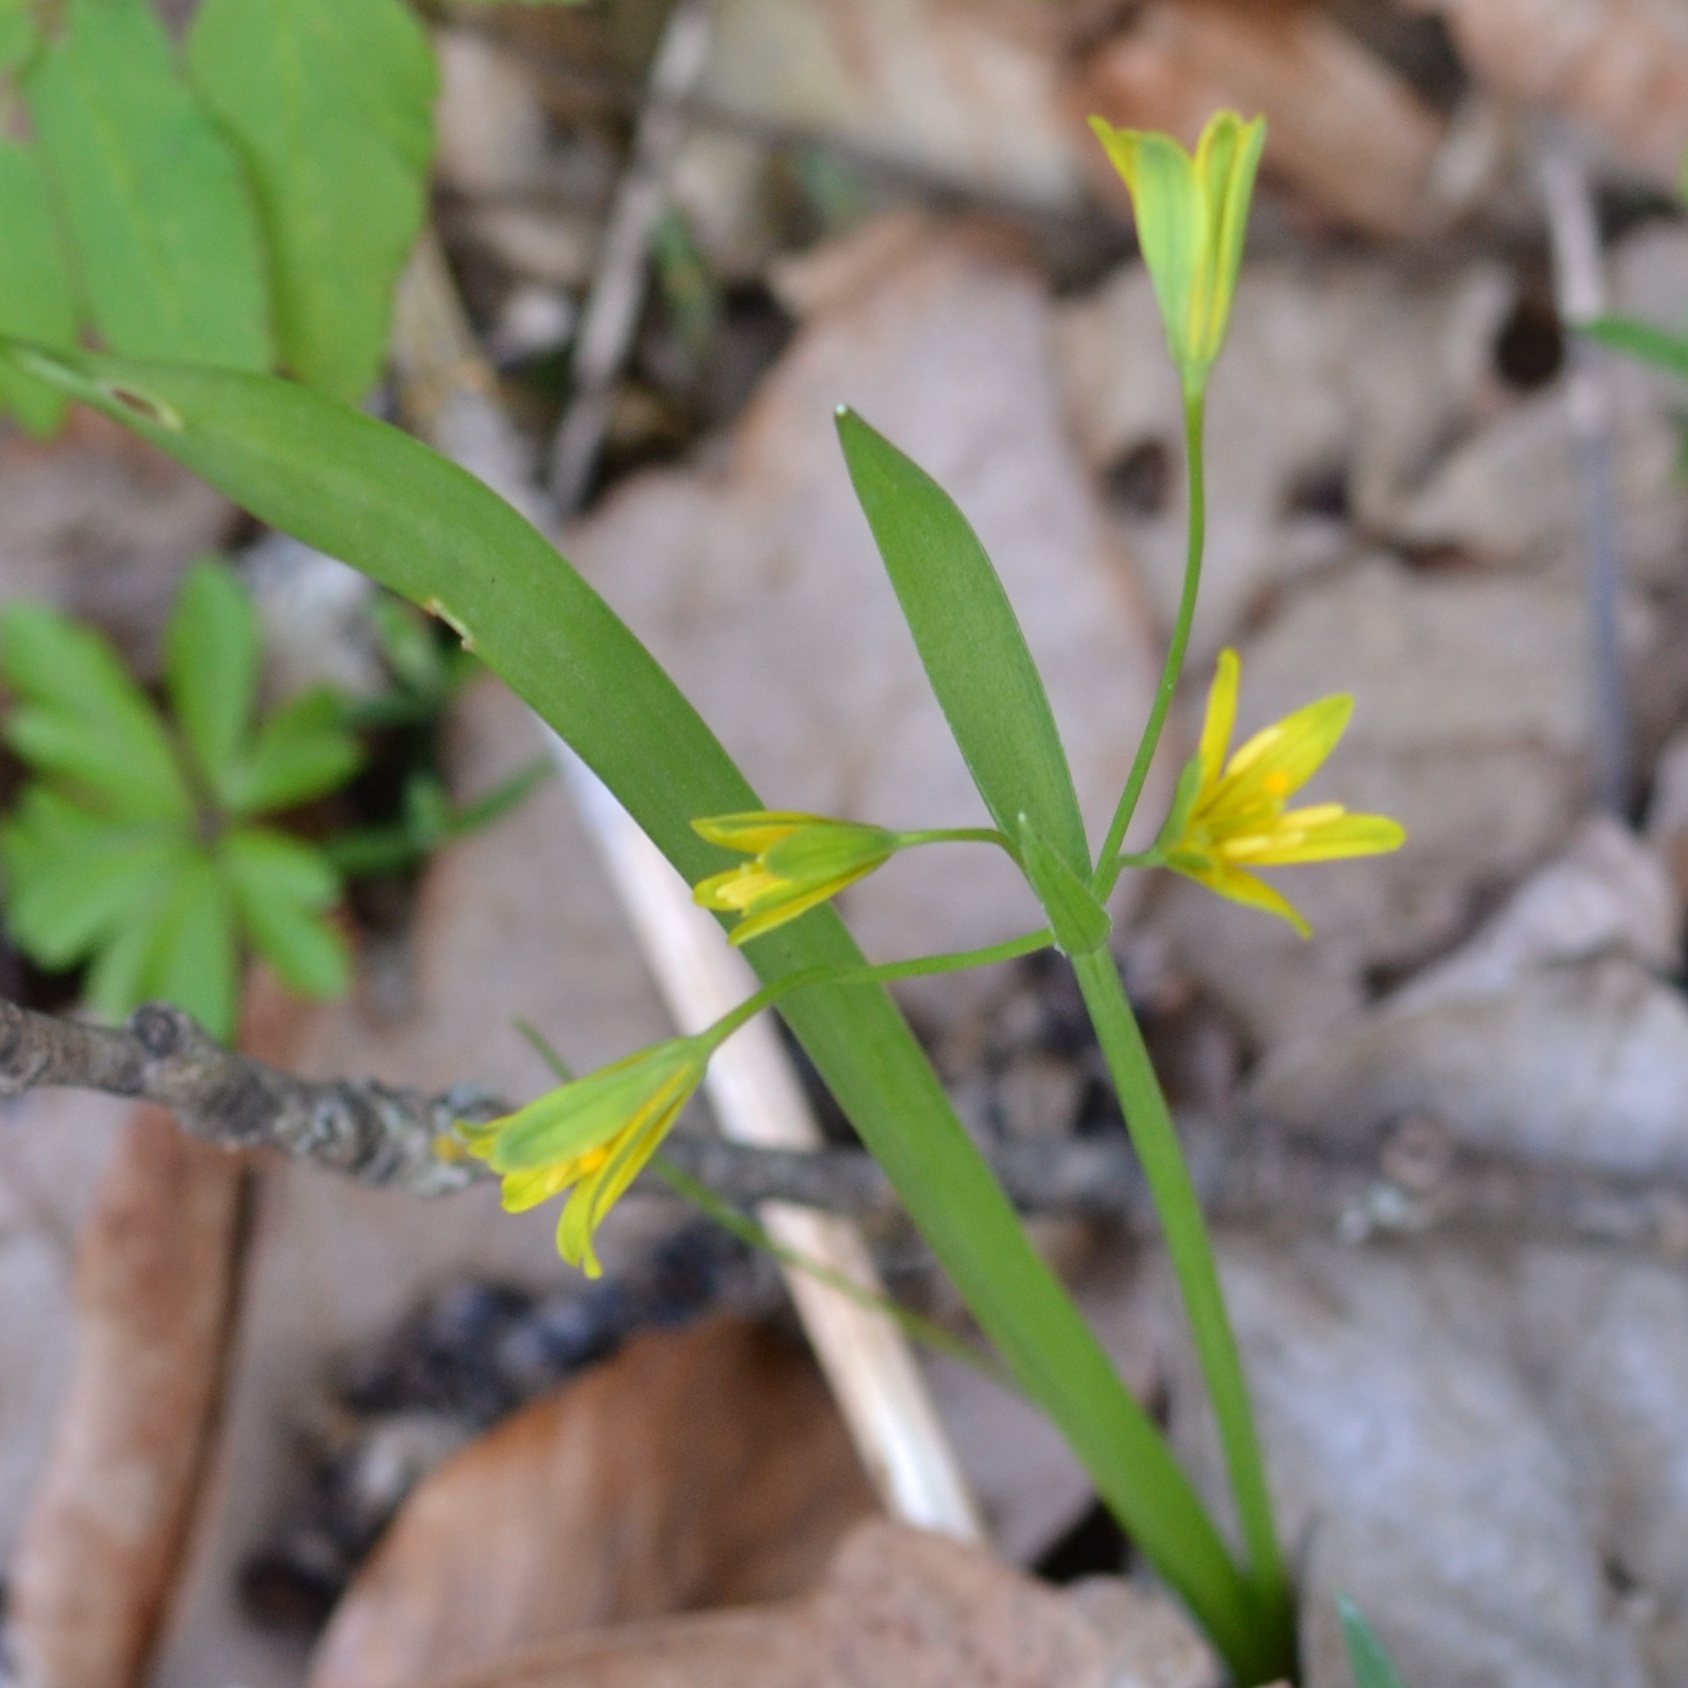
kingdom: Plantae
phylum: Tracheophyta
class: Liliopsida
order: Liliales
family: Liliaceae
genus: Gagea
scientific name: Gagea lutea
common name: Yellow star-of-bethlehem
